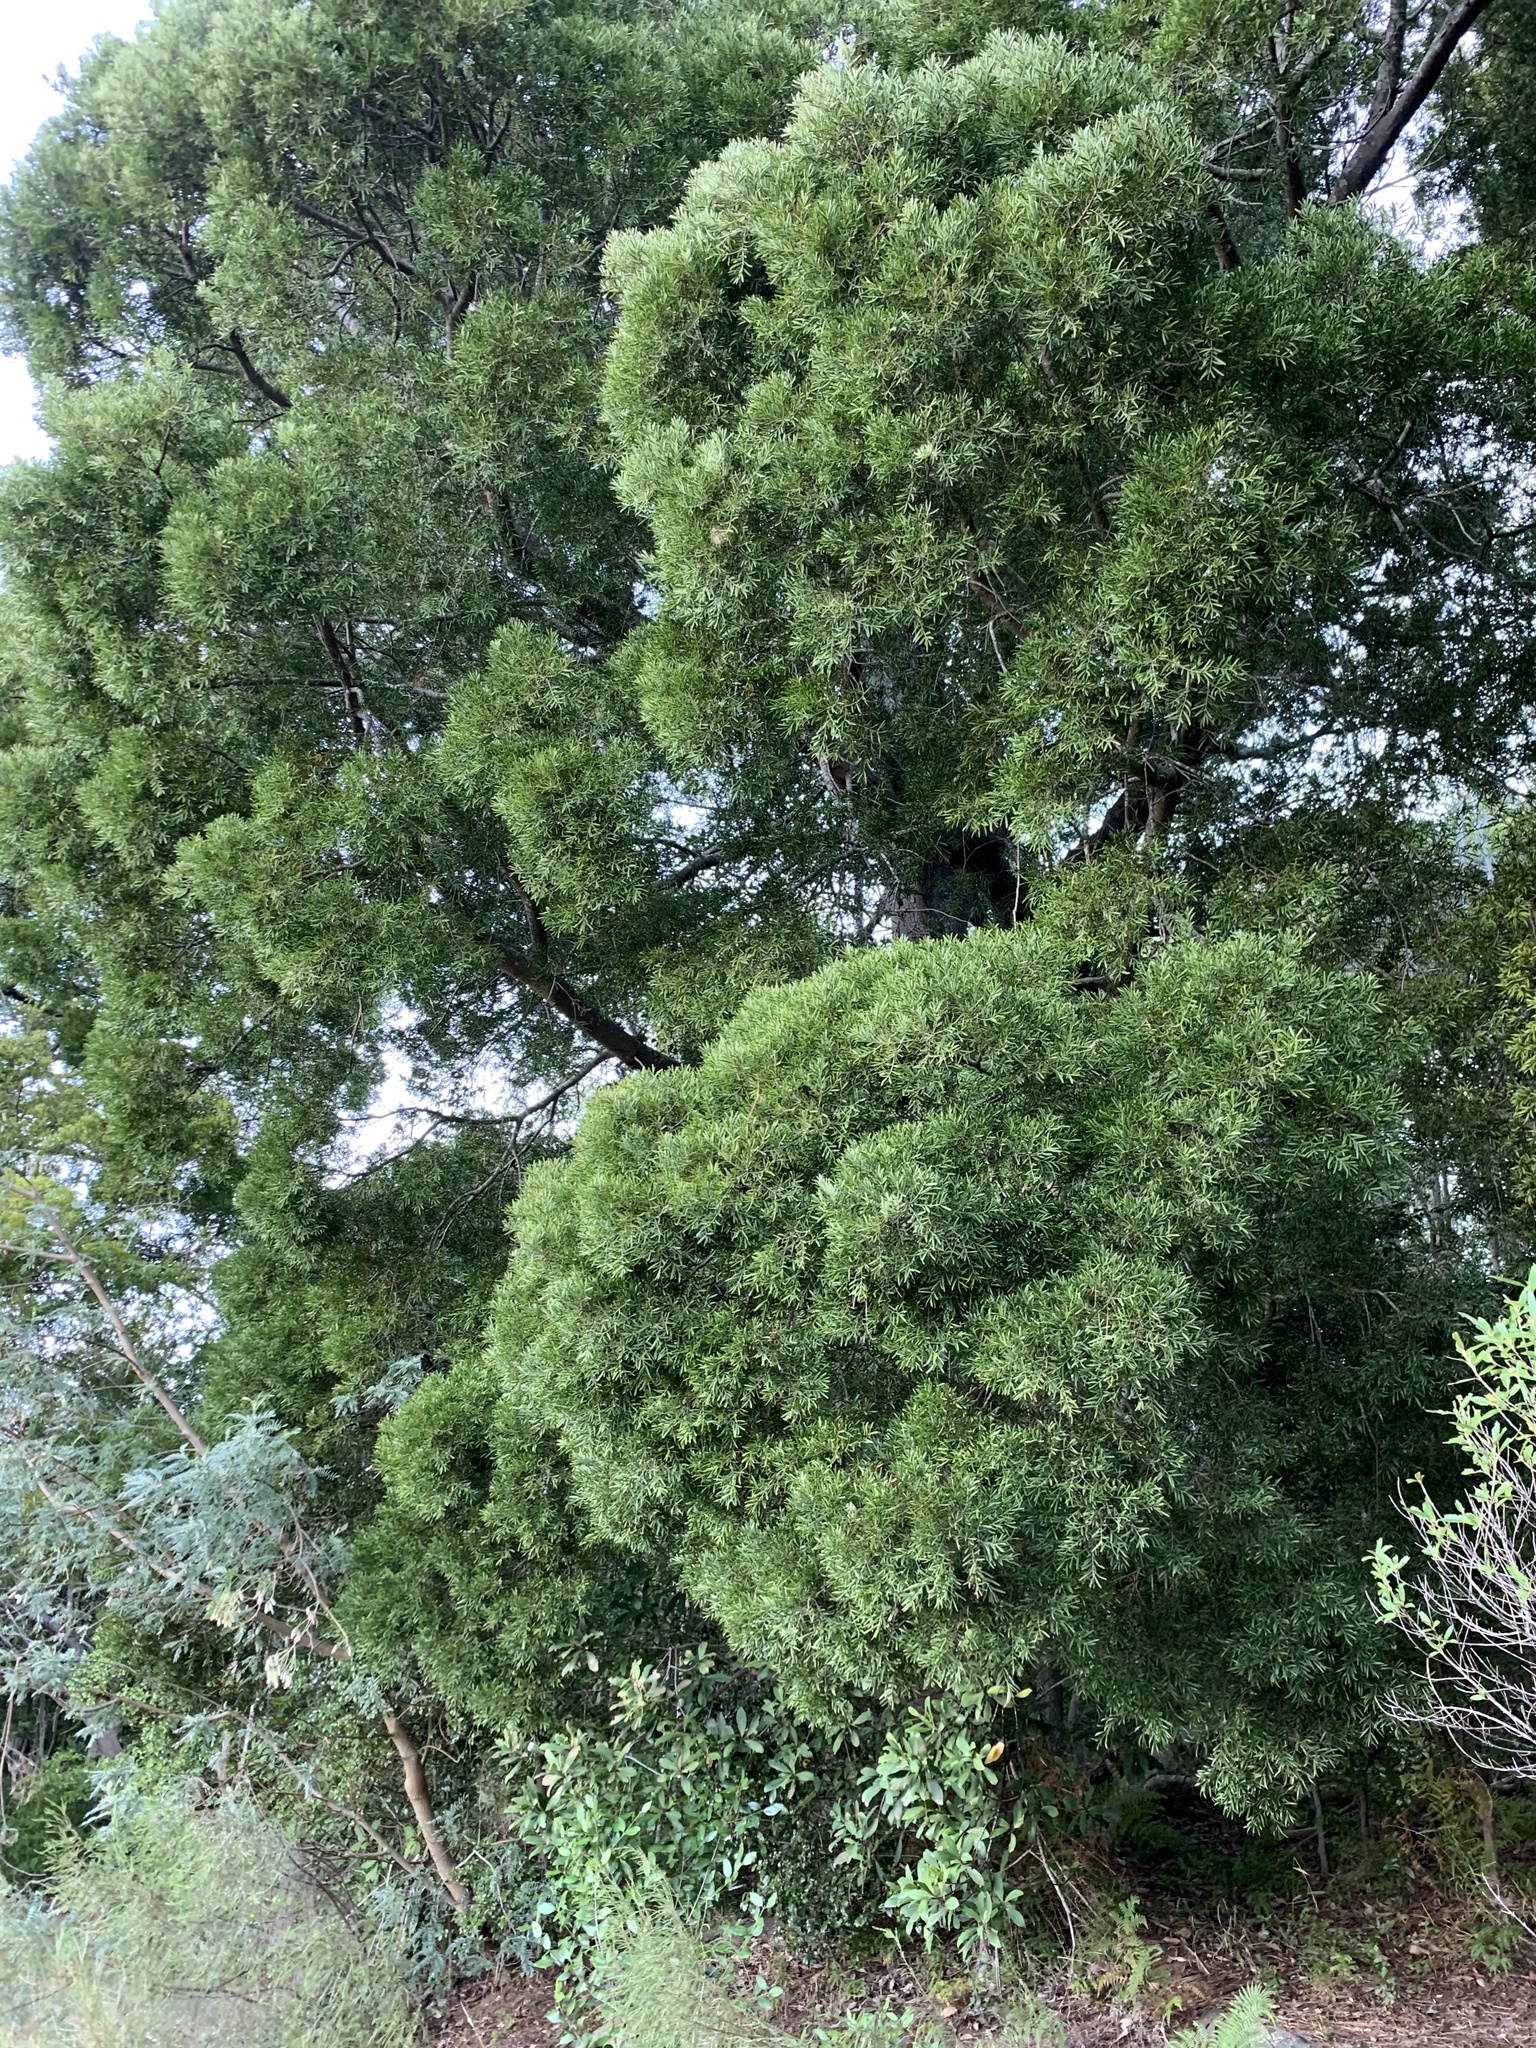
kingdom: Plantae
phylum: Tracheophyta
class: Pinopsida
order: Pinales
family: Podocarpaceae
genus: Afrocarpus
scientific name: Afrocarpus falcatus
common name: Bastard yellowwood
